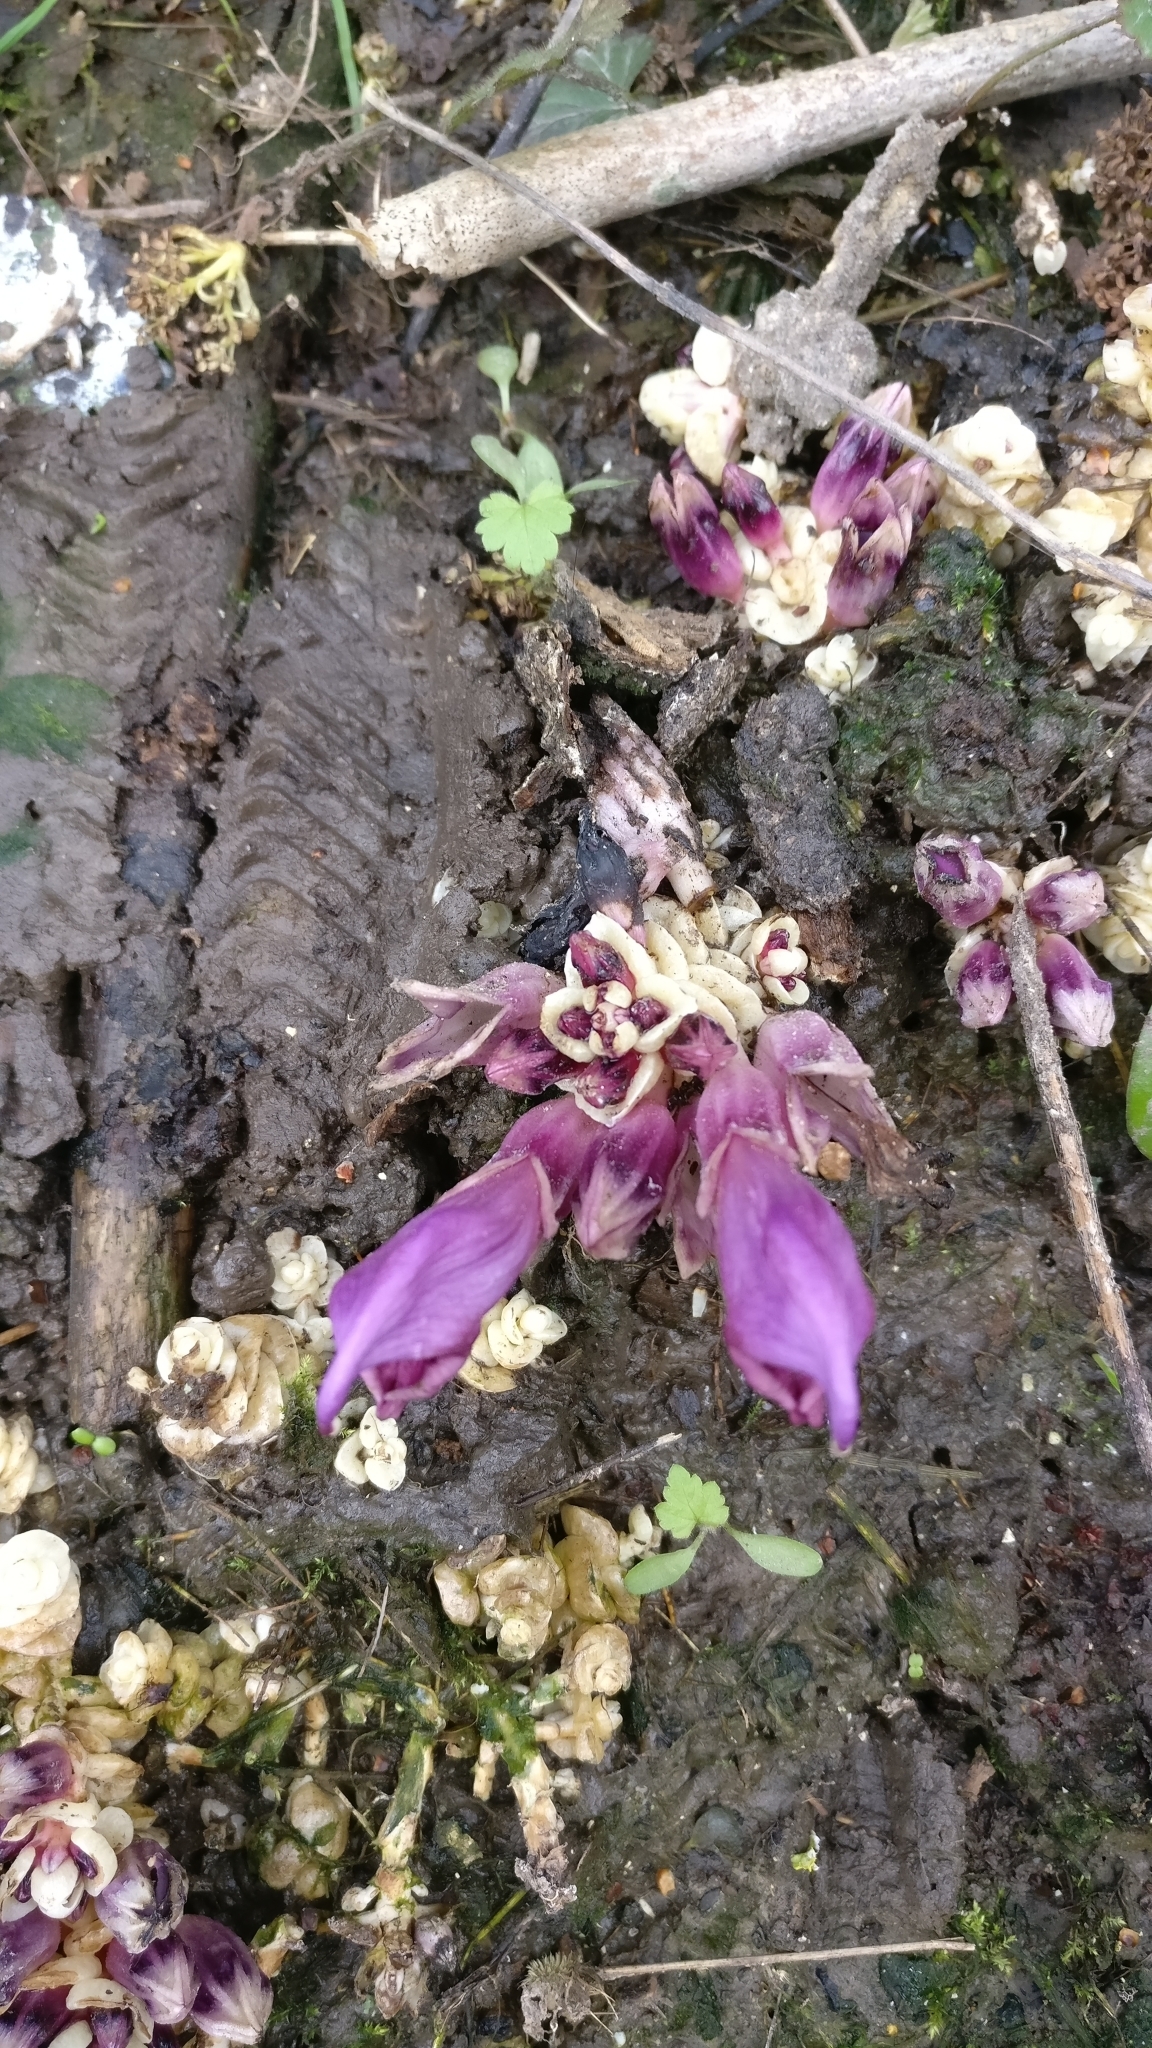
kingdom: Plantae
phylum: Tracheophyta
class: Magnoliopsida
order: Lamiales
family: Orobanchaceae
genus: Lathraea
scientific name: Lathraea clandestina
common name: Purple toothwort
